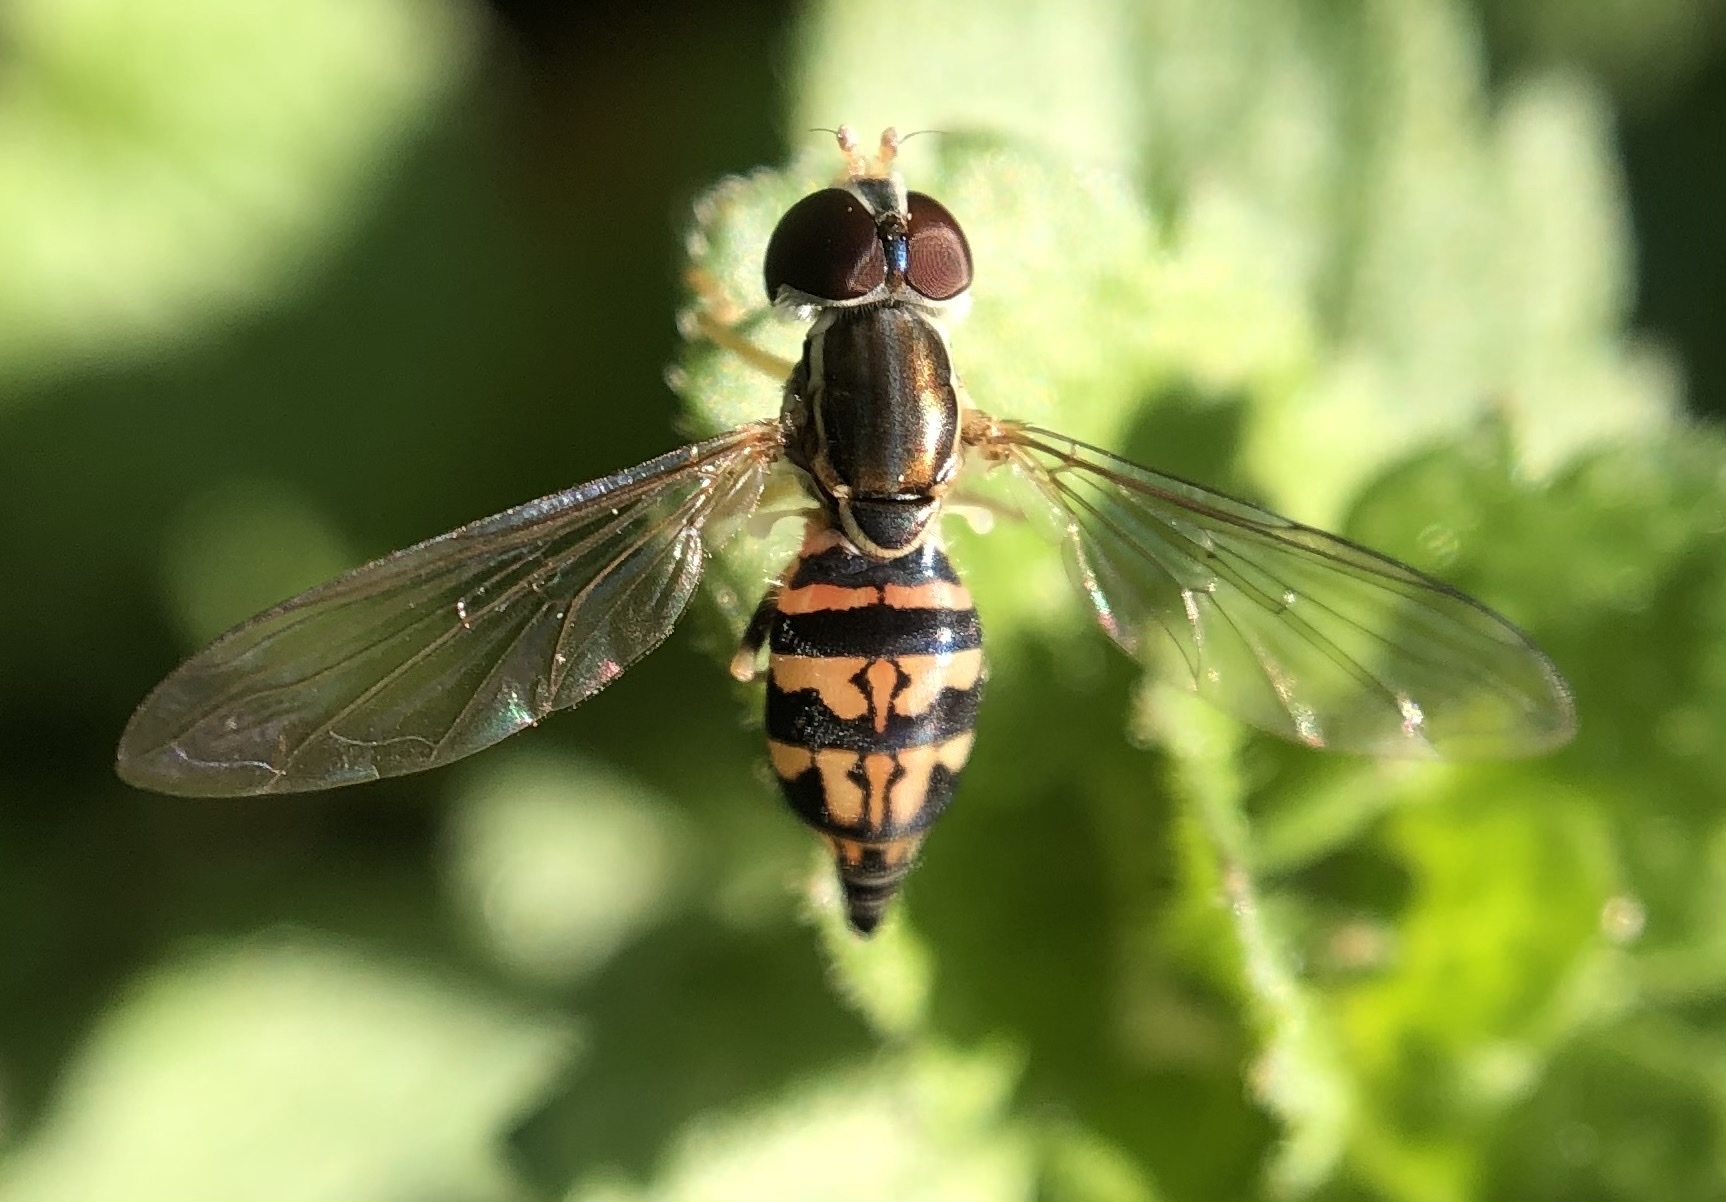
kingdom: Animalia
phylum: Arthropoda
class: Insecta
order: Diptera
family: Syrphidae
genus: Toxomerus
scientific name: Toxomerus geminatus
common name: Eastern calligrapher
